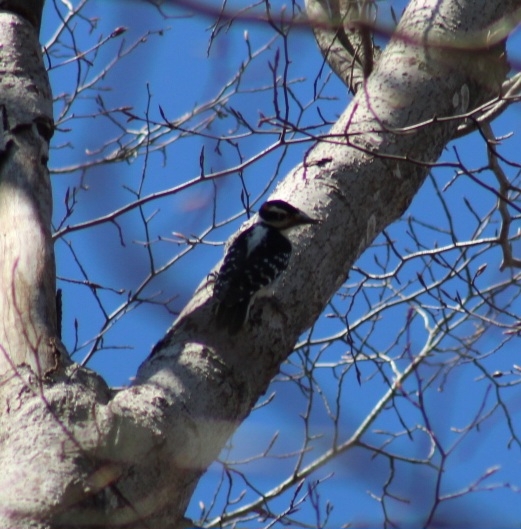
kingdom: Animalia
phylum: Chordata
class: Aves
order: Piciformes
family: Picidae
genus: Leuconotopicus
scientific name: Leuconotopicus villosus
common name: Hairy woodpecker
